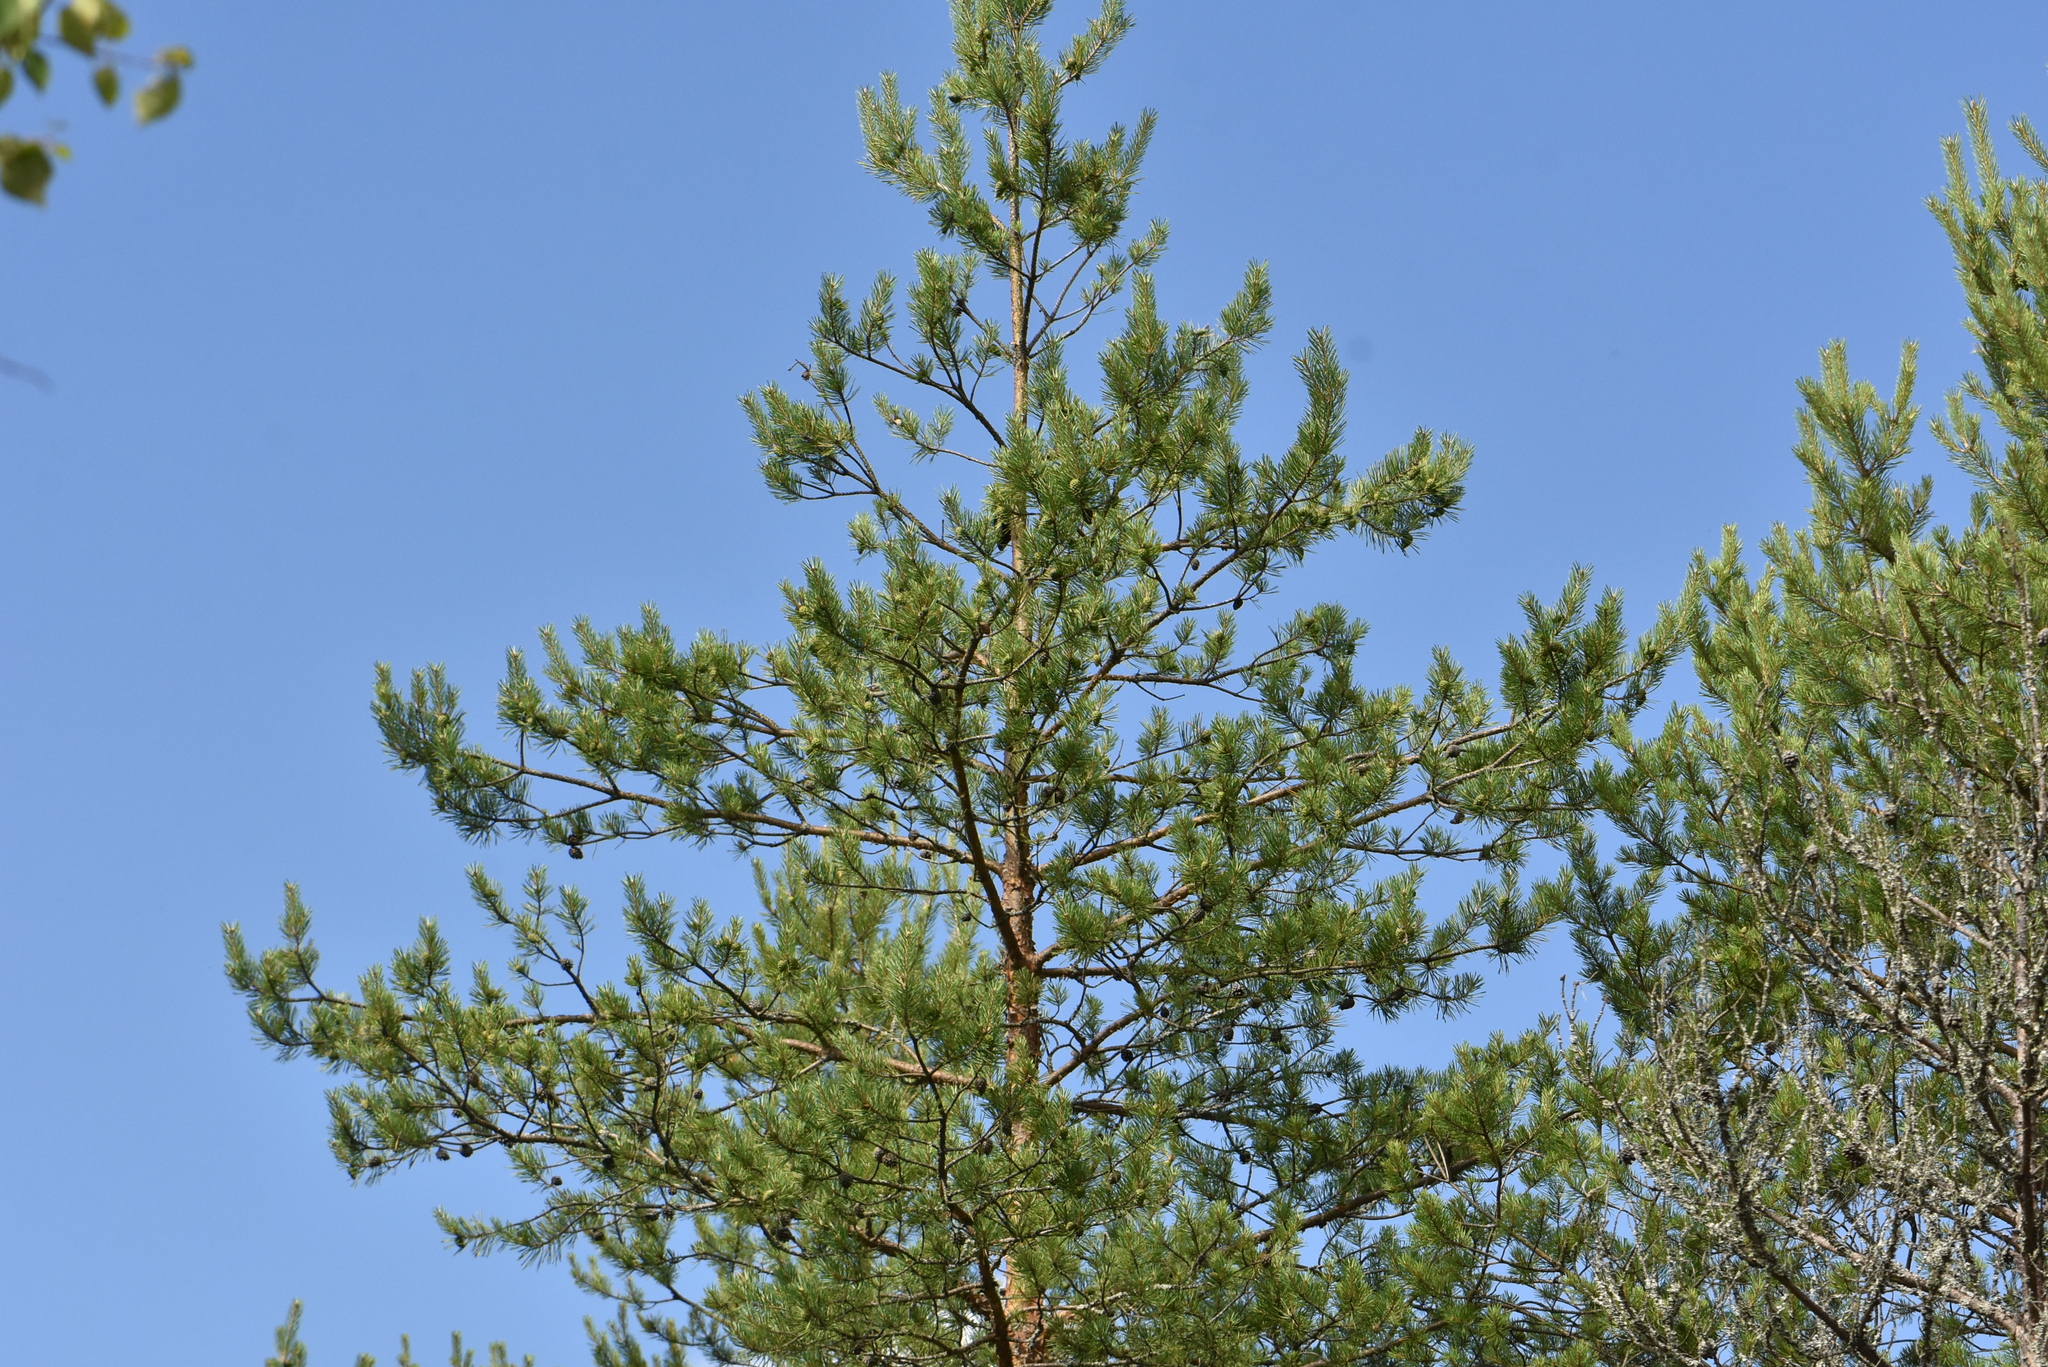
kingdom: Plantae
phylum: Tracheophyta
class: Pinopsida
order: Pinales
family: Pinaceae
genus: Pinus
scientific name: Pinus sylvestris
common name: Scots pine
